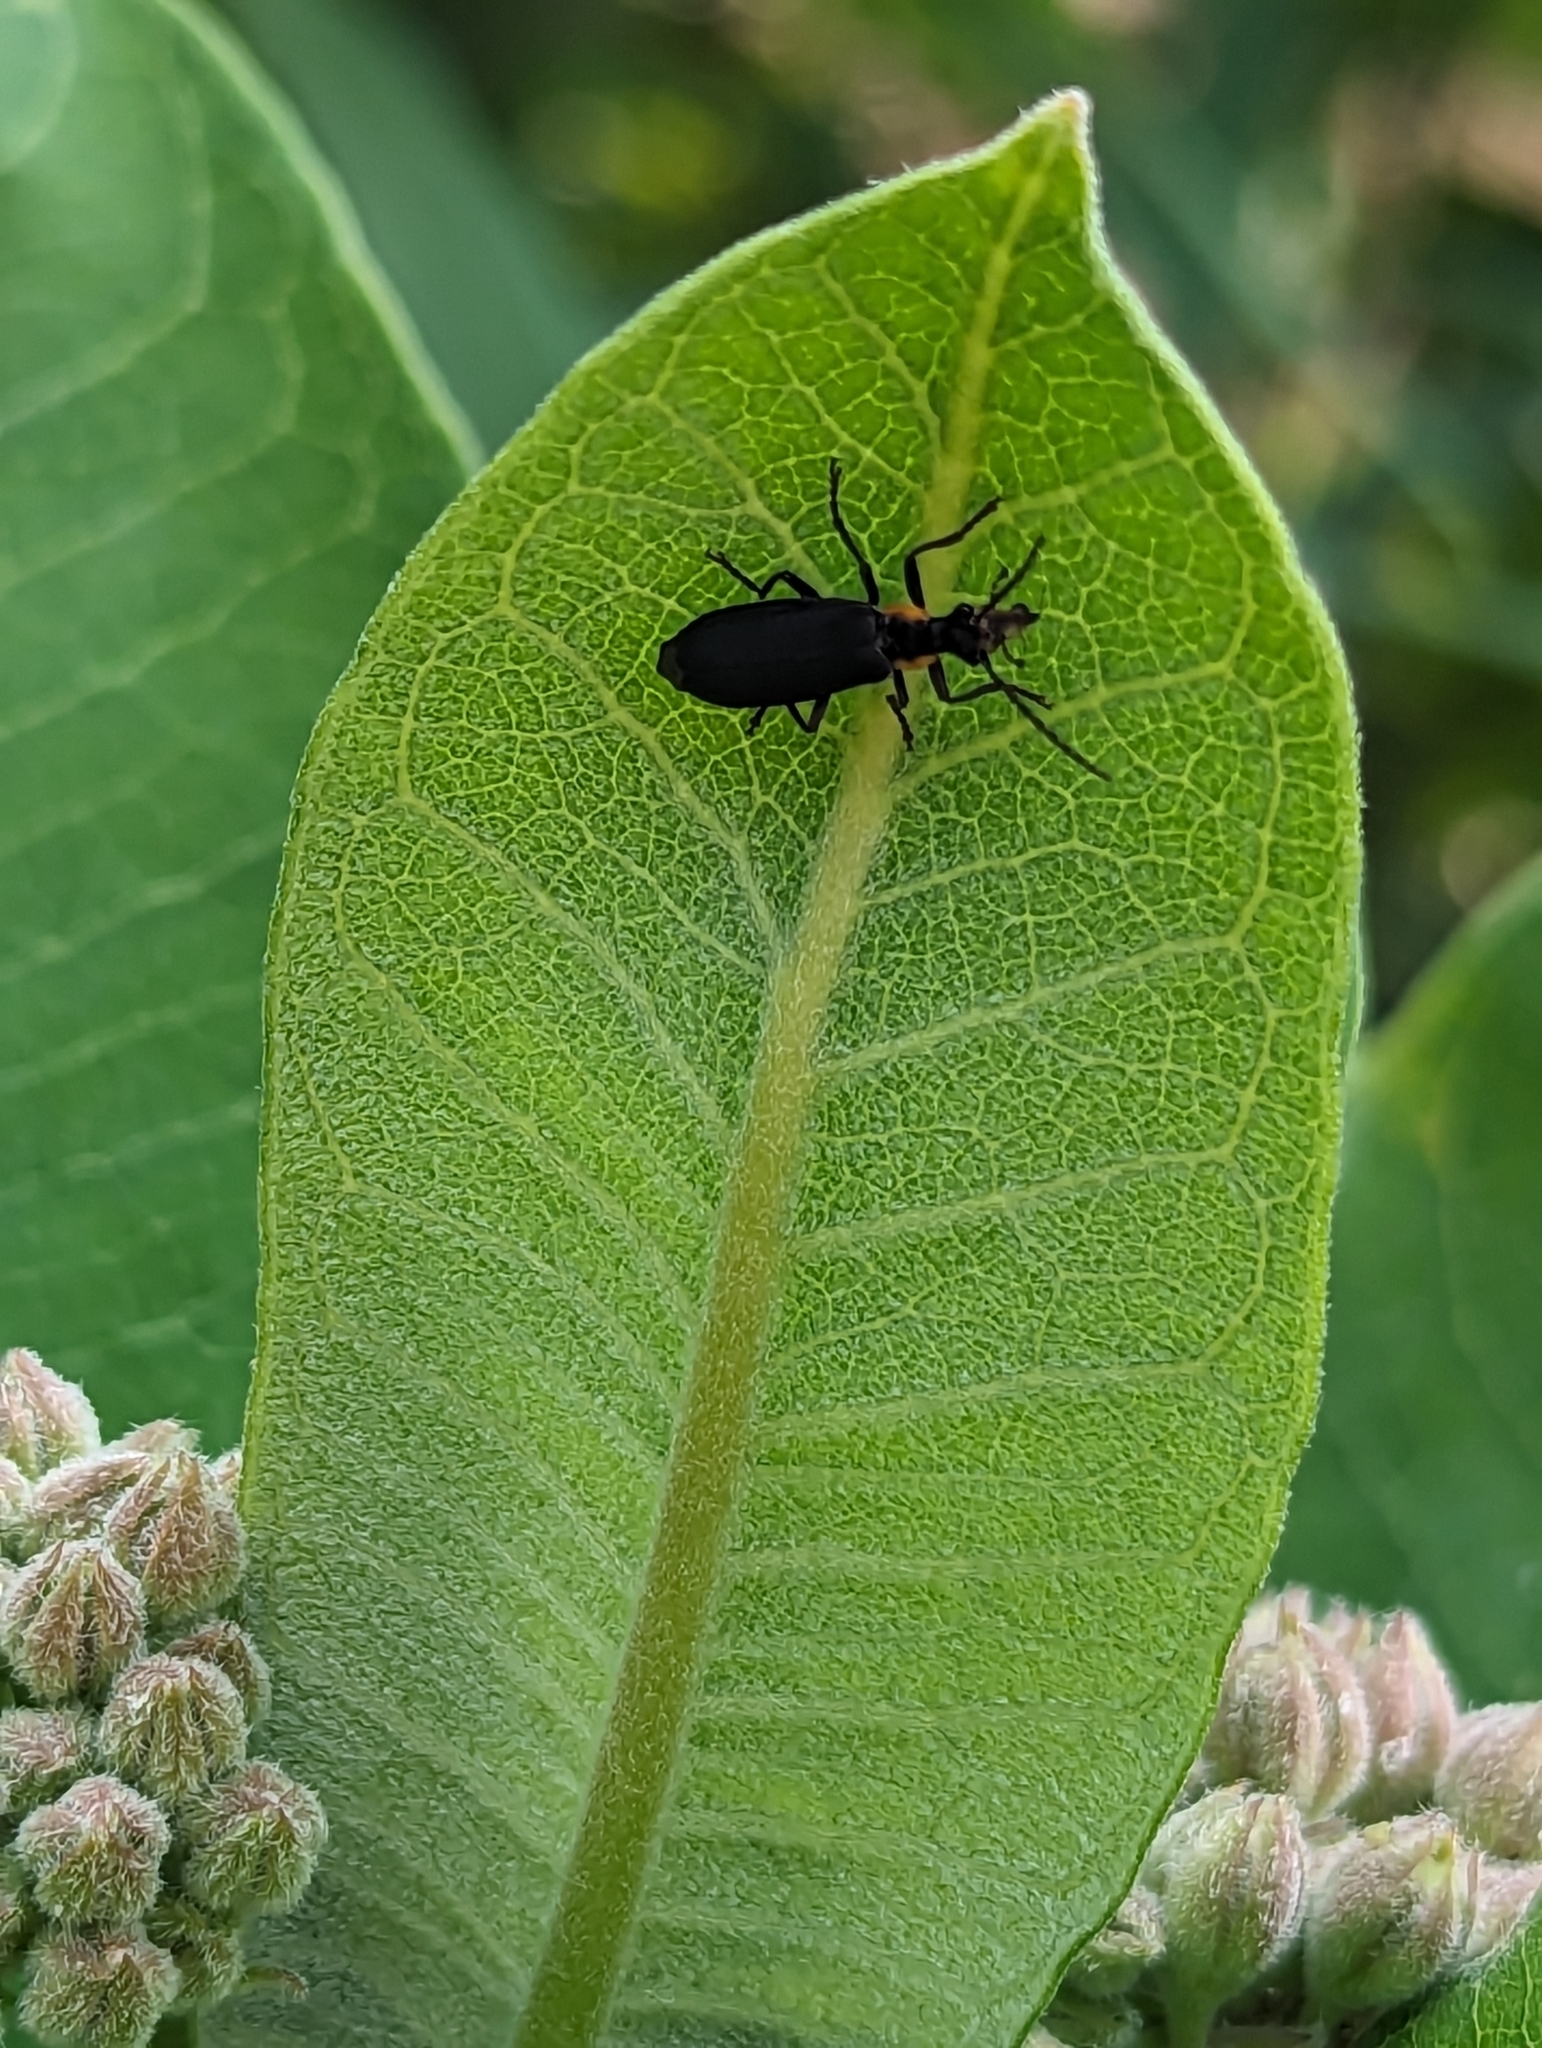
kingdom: Animalia
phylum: Arthropoda
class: Insecta
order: Coleoptera
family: Cantharidae
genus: Podabrus
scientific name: Podabrus rugosulus
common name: Wrinkled soldier beetle
